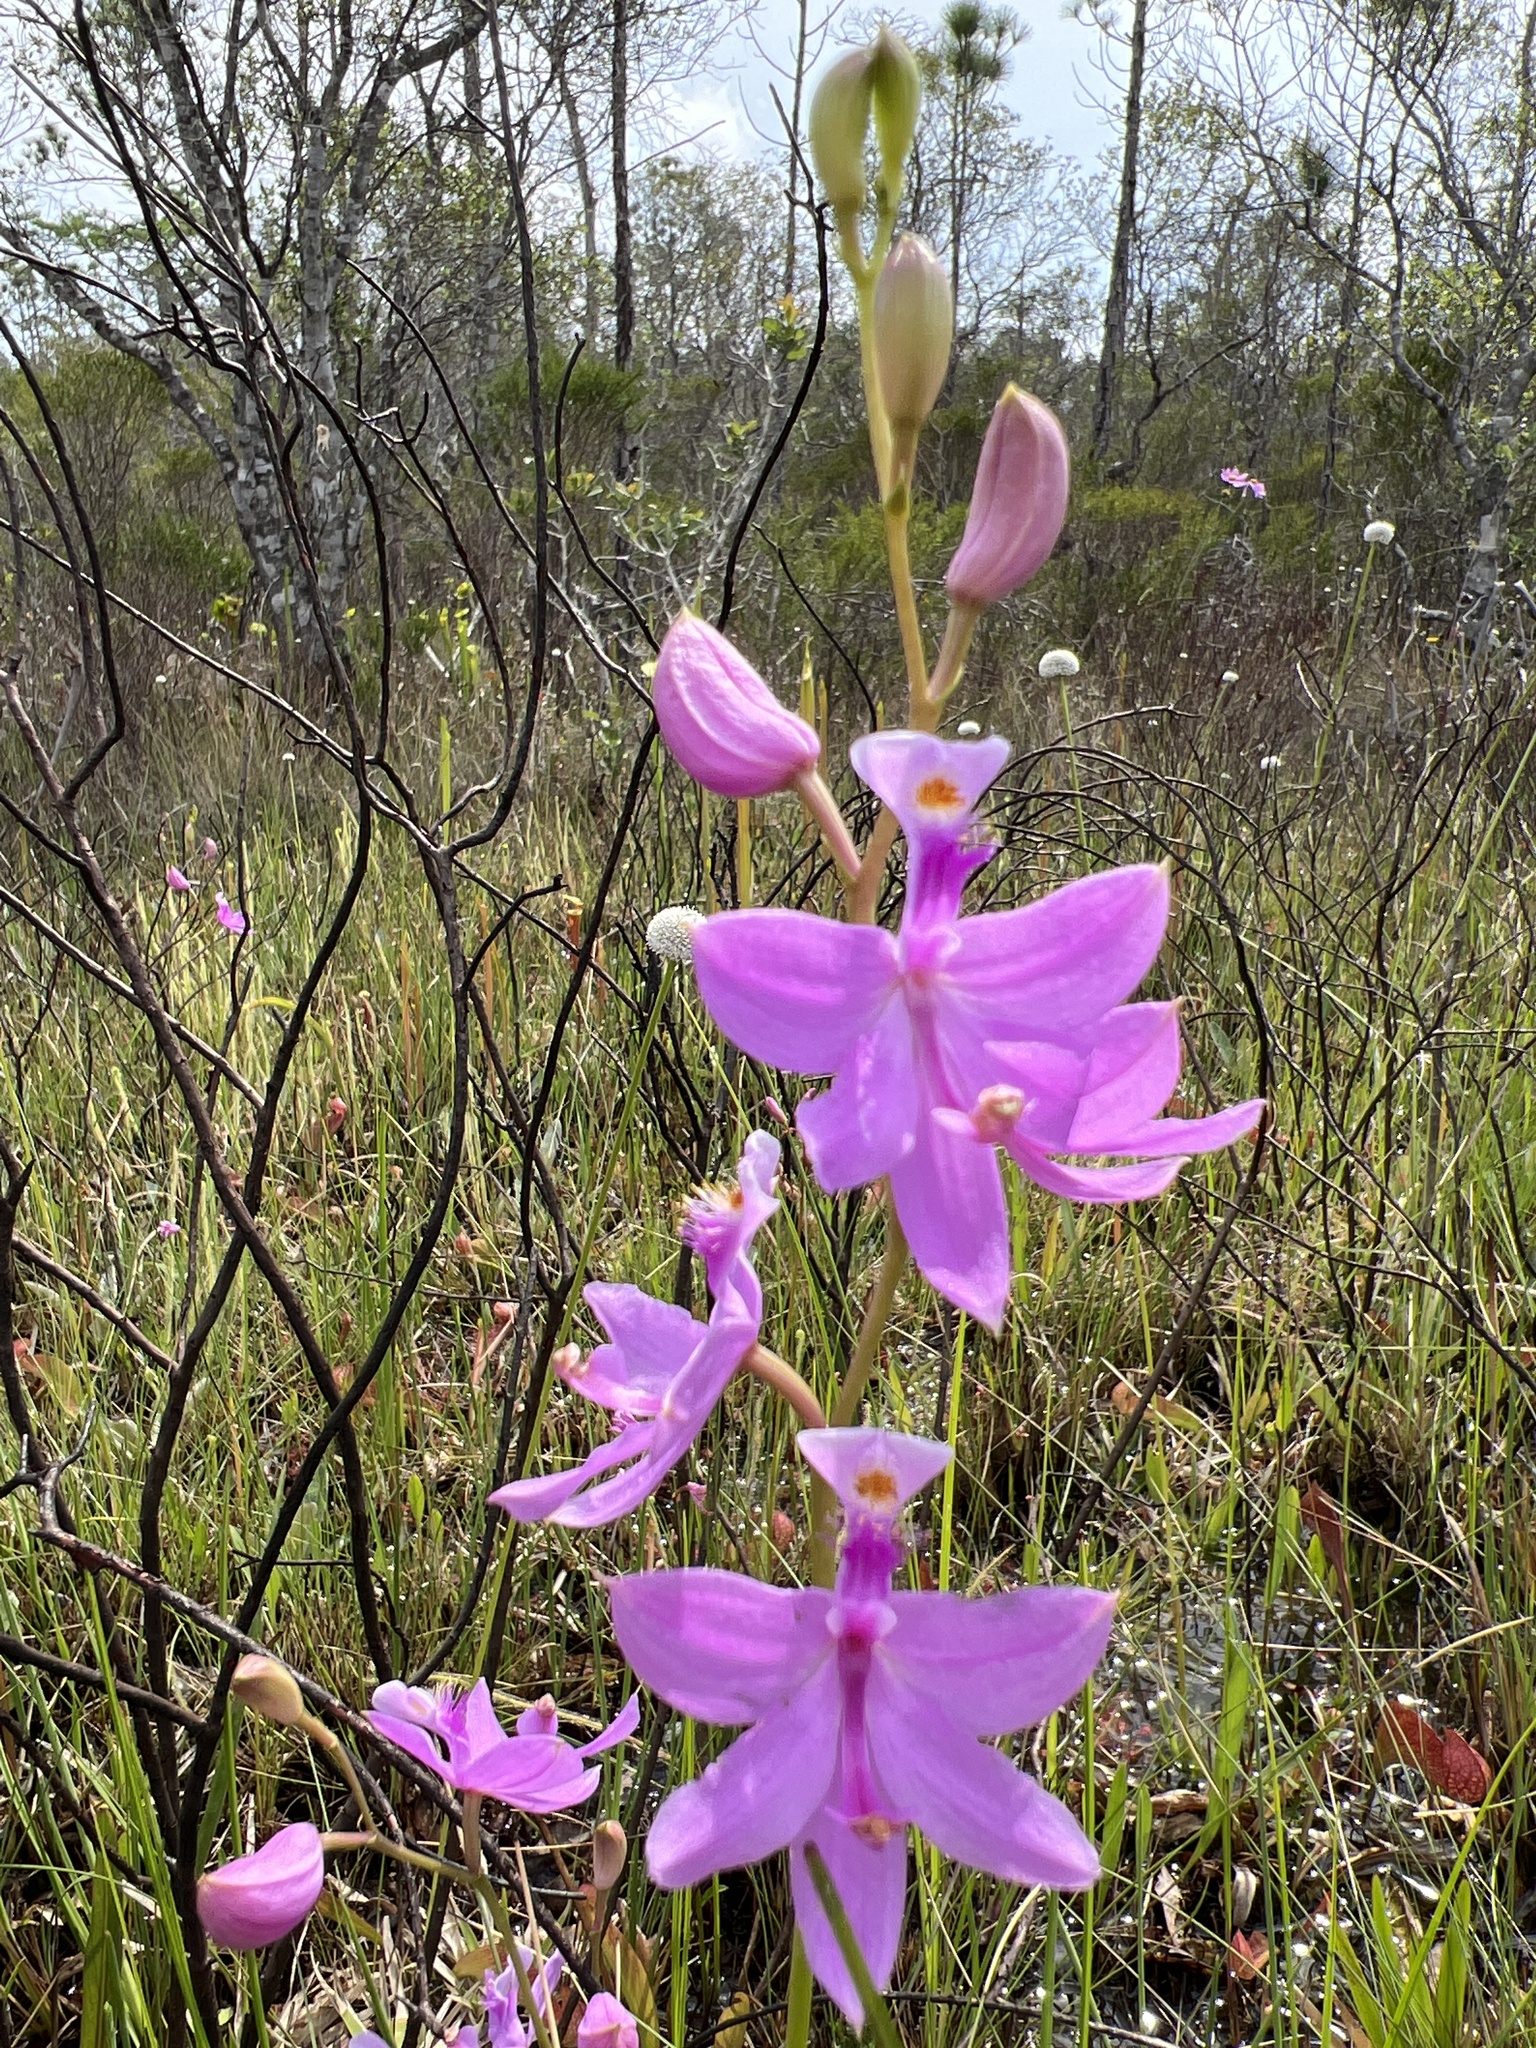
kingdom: Plantae
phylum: Tracheophyta
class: Liliopsida
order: Asparagales
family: Orchidaceae
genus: Calopogon
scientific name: Calopogon barbatus
